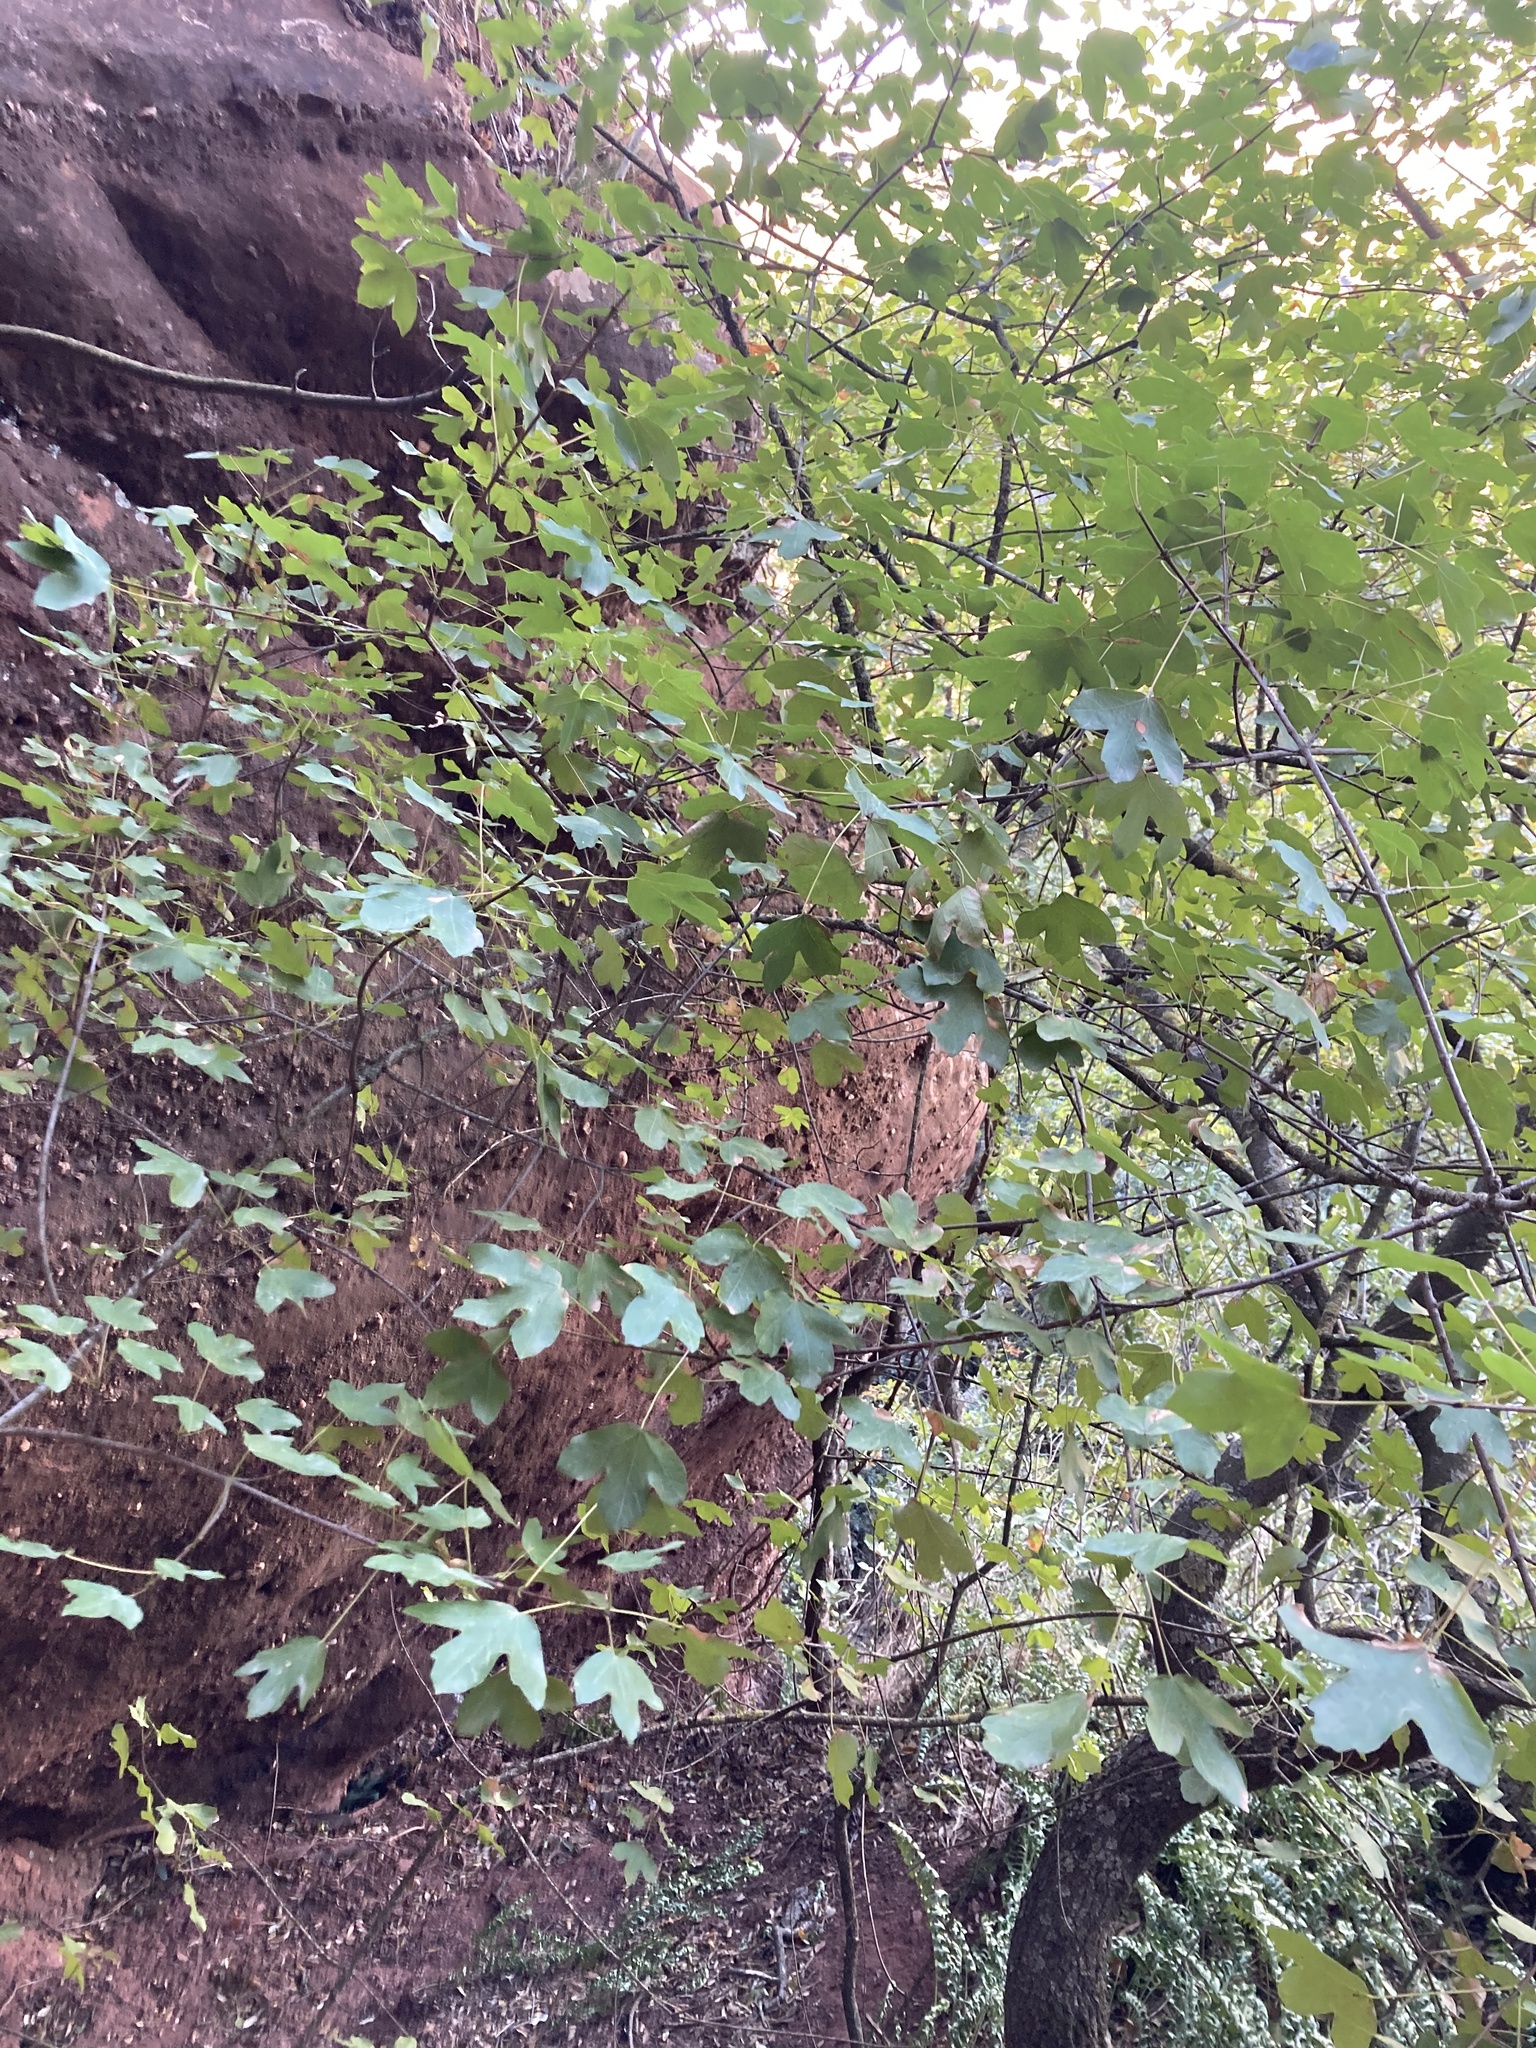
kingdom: Plantae
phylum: Tracheophyta
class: Magnoliopsida
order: Sapindales
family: Sapindaceae
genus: Acer
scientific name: Acer monspessulanum
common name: Montpellier maple
